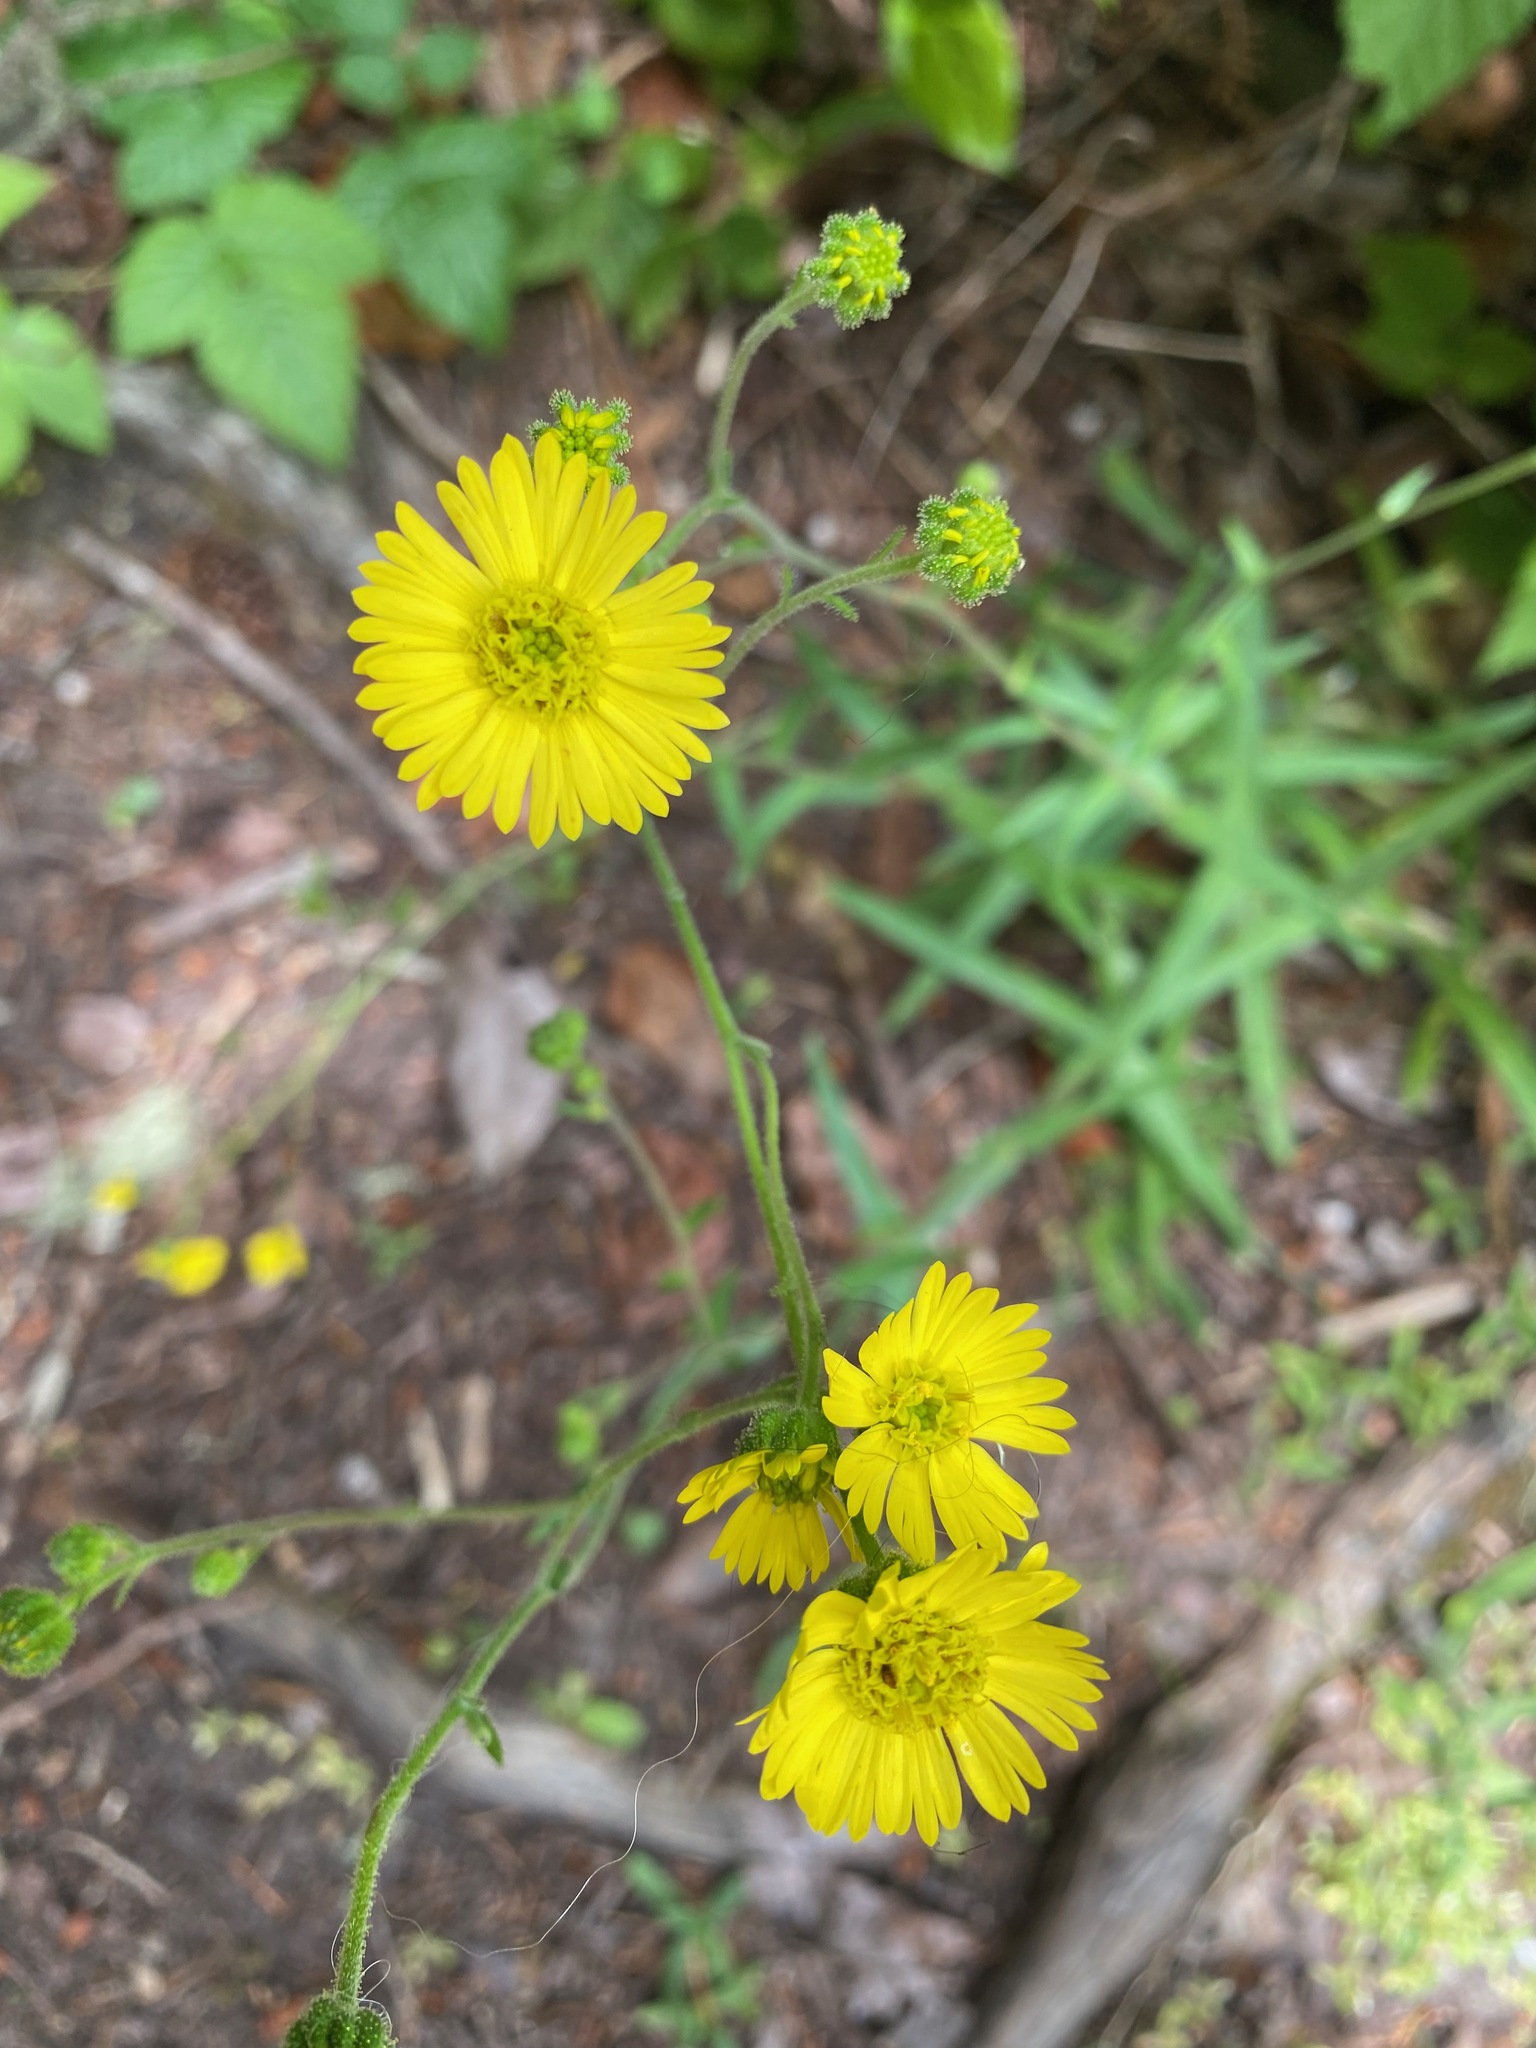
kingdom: Plantae
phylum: Tracheophyta
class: Magnoliopsida
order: Asterales
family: Asteraceae
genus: Anisocarpus
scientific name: Anisocarpus madioides
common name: Woodland madia
